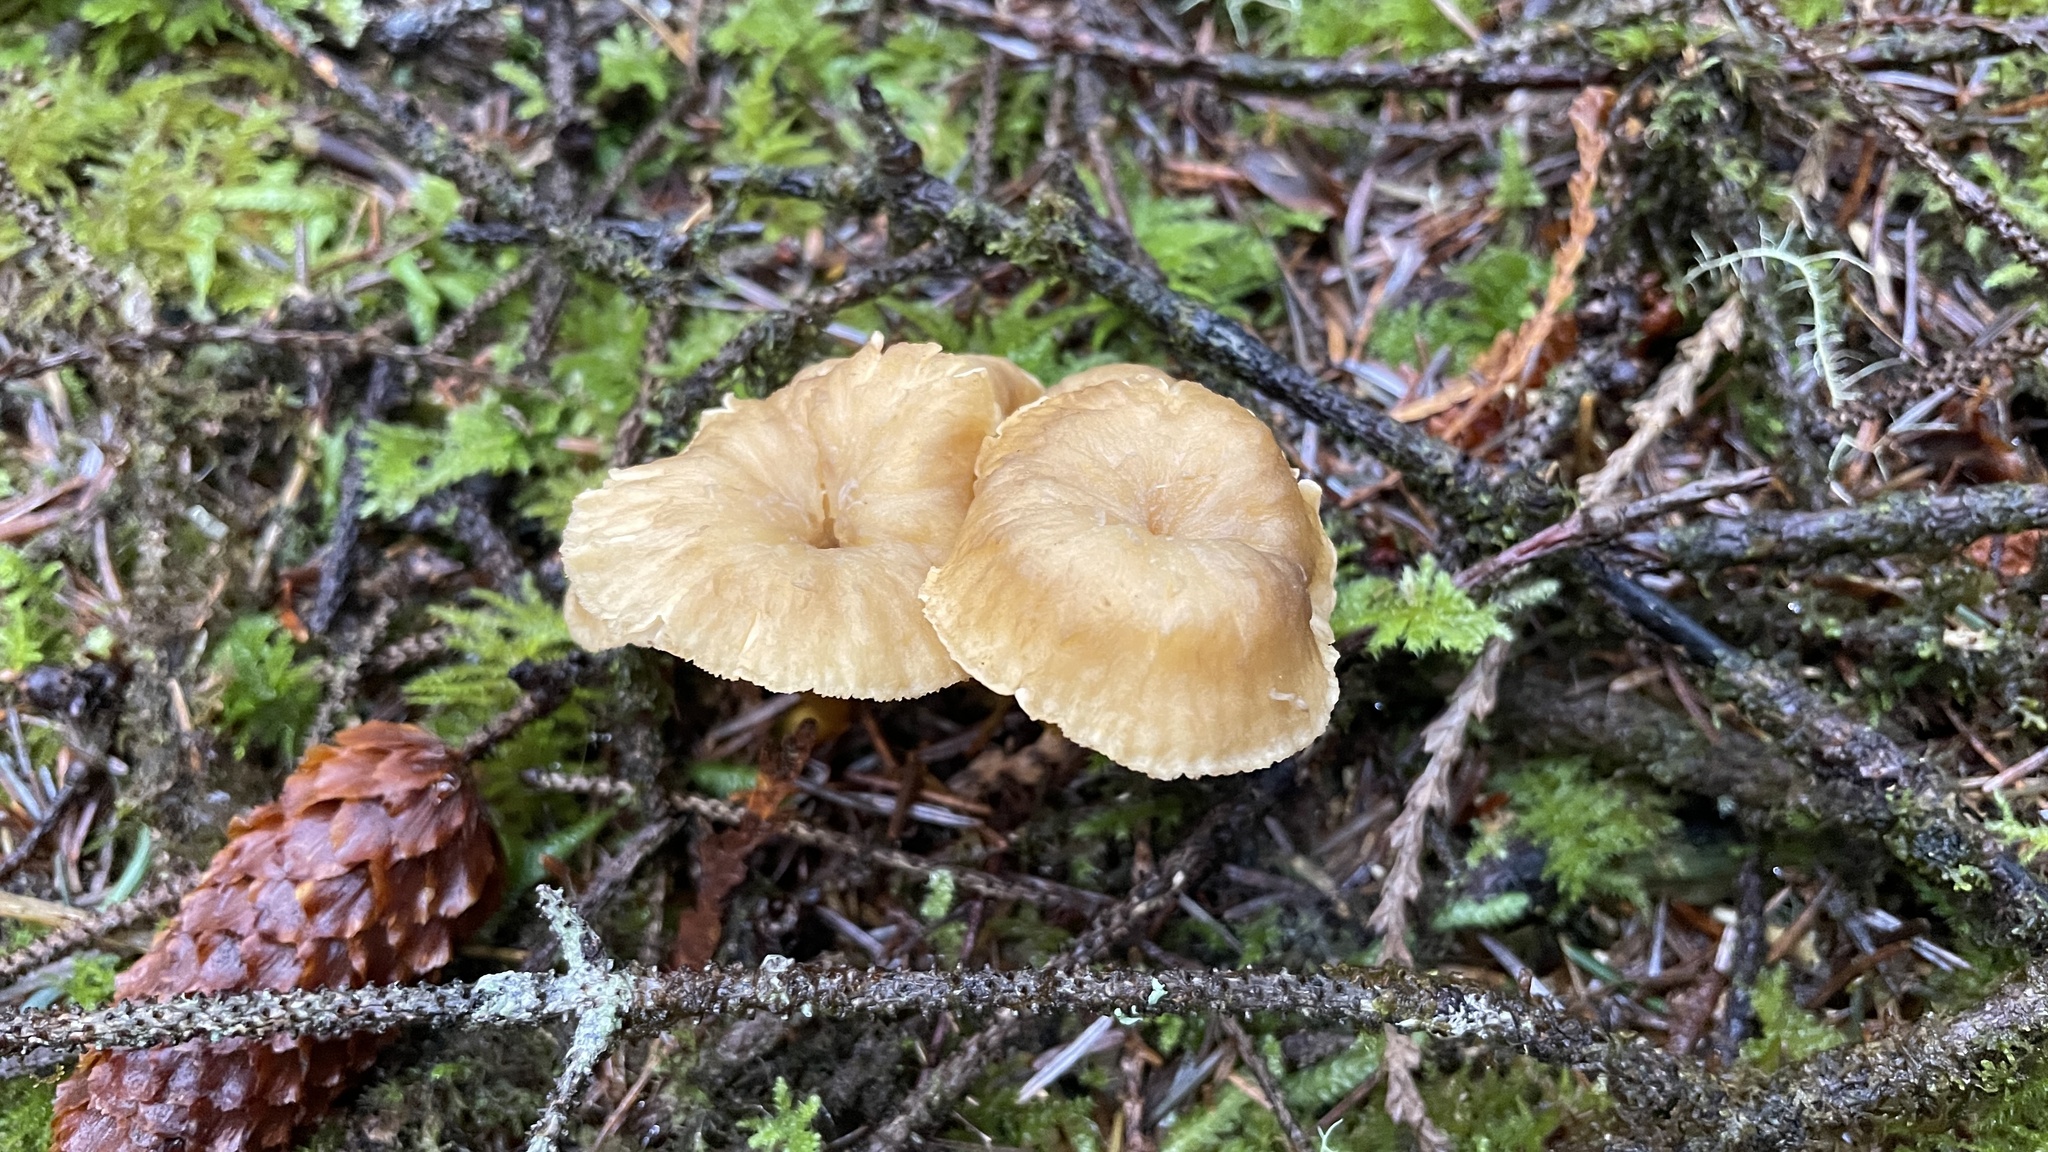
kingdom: Fungi
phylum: Basidiomycota
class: Agaricomycetes
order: Cantharellales
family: Hydnaceae
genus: Craterellus
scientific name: Craterellus tubaeformis
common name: Yellowfoot
